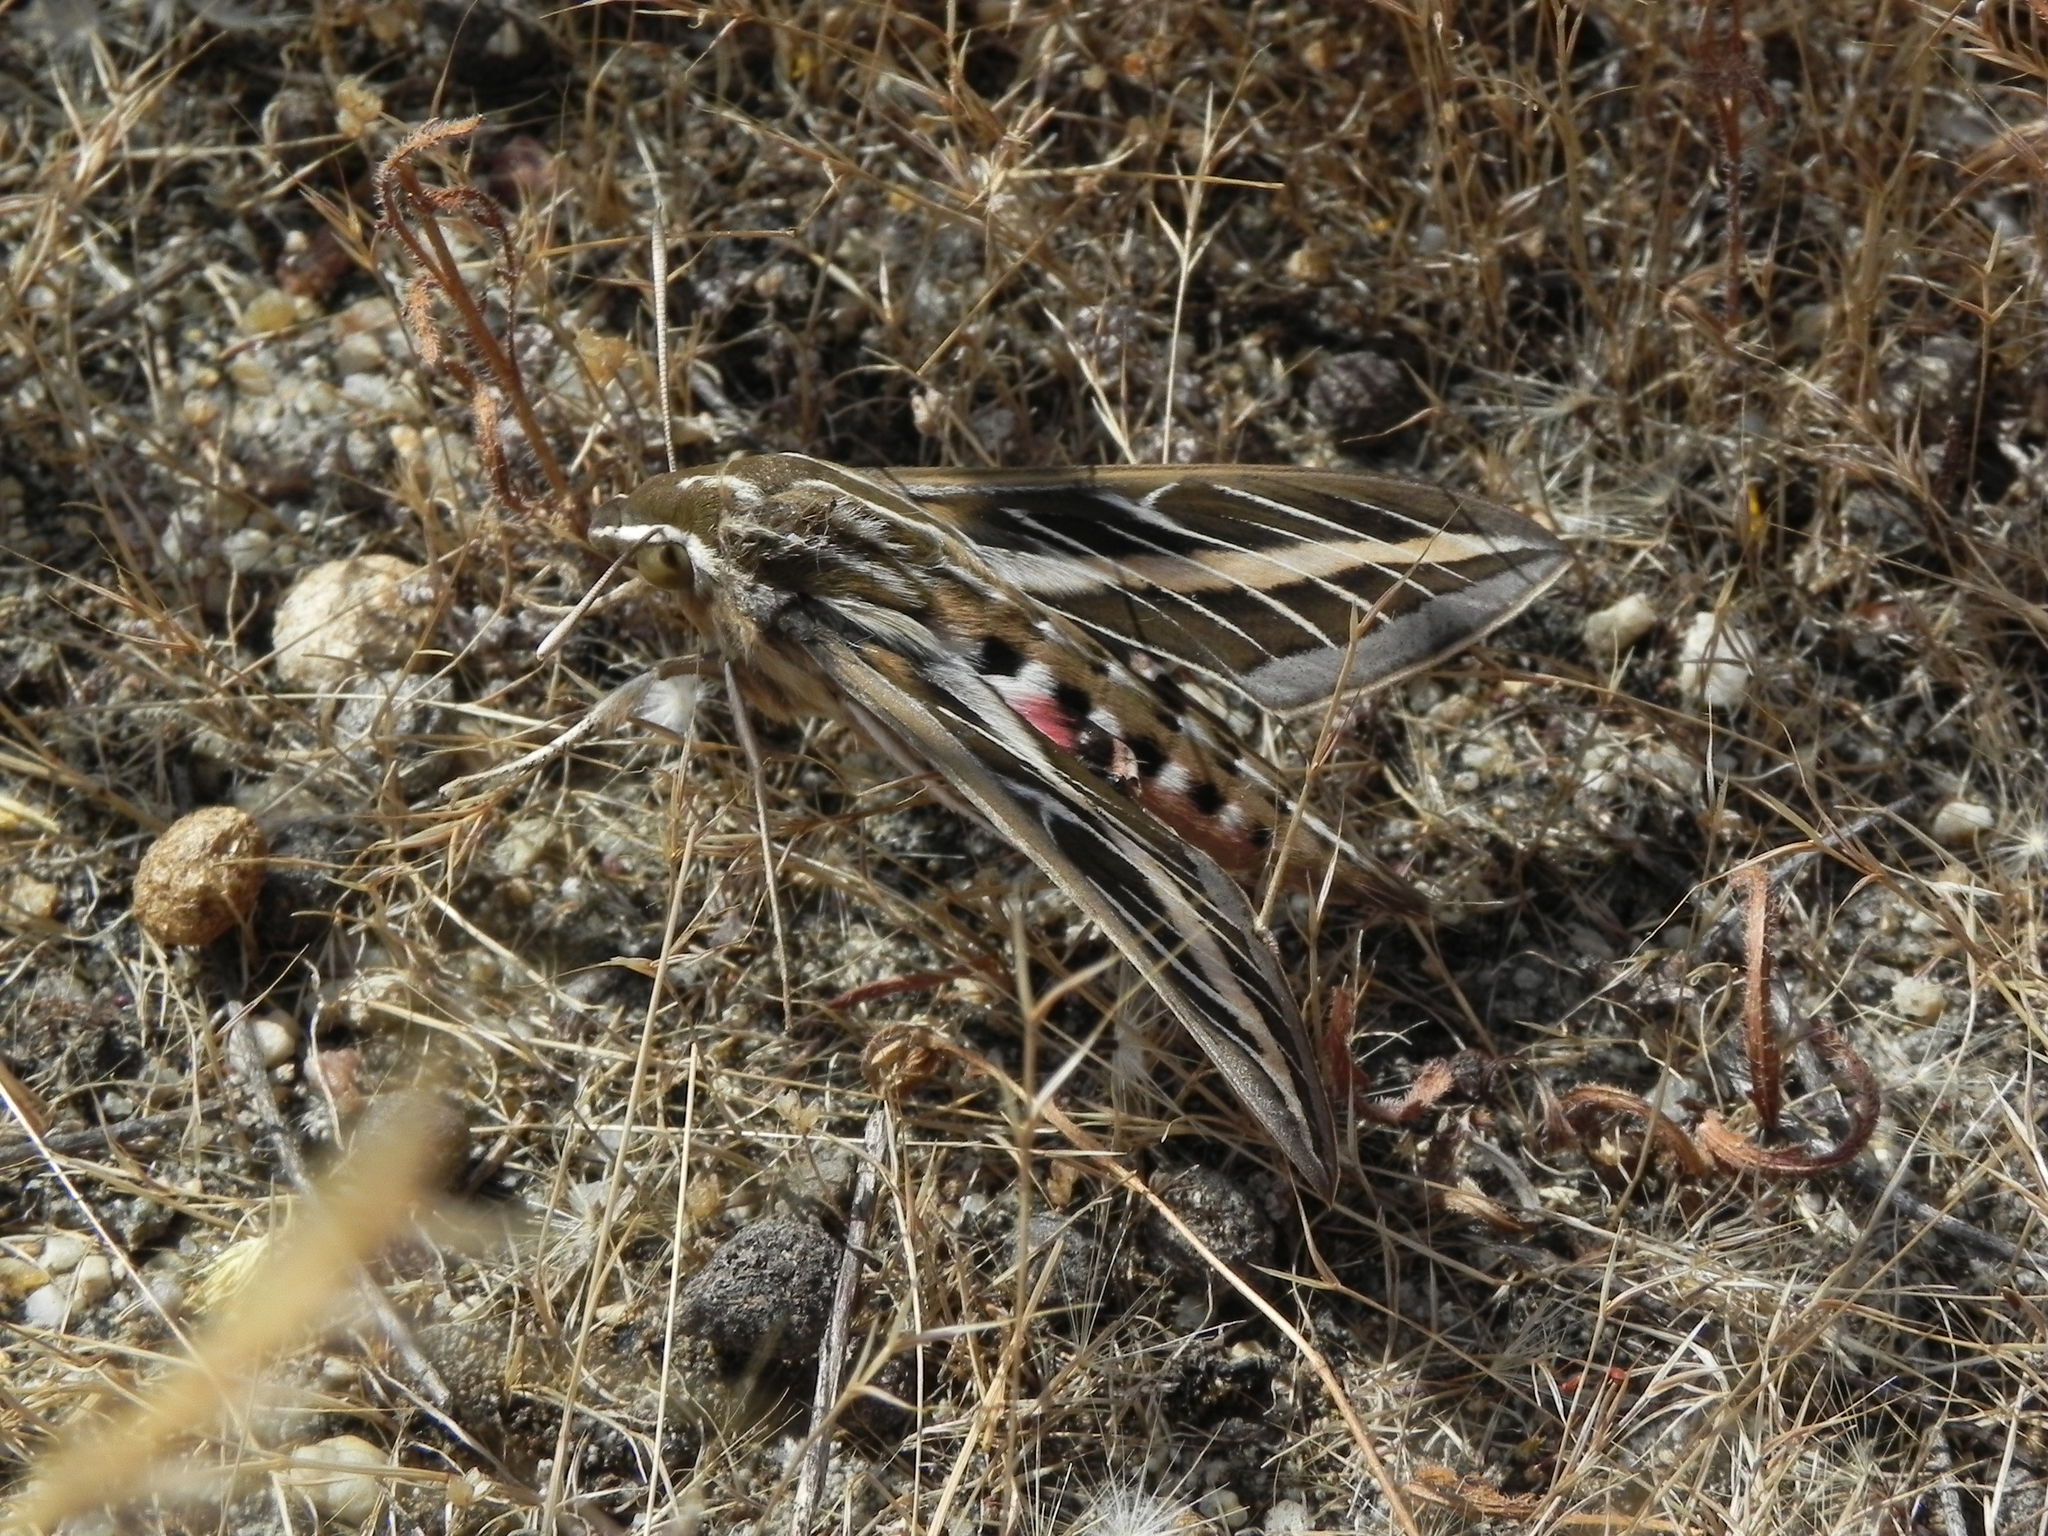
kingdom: Animalia
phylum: Arthropoda
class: Insecta
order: Lepidoptera
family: Sphingidae
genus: Hyles
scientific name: Hyles lineata
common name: White-lined sphinx
